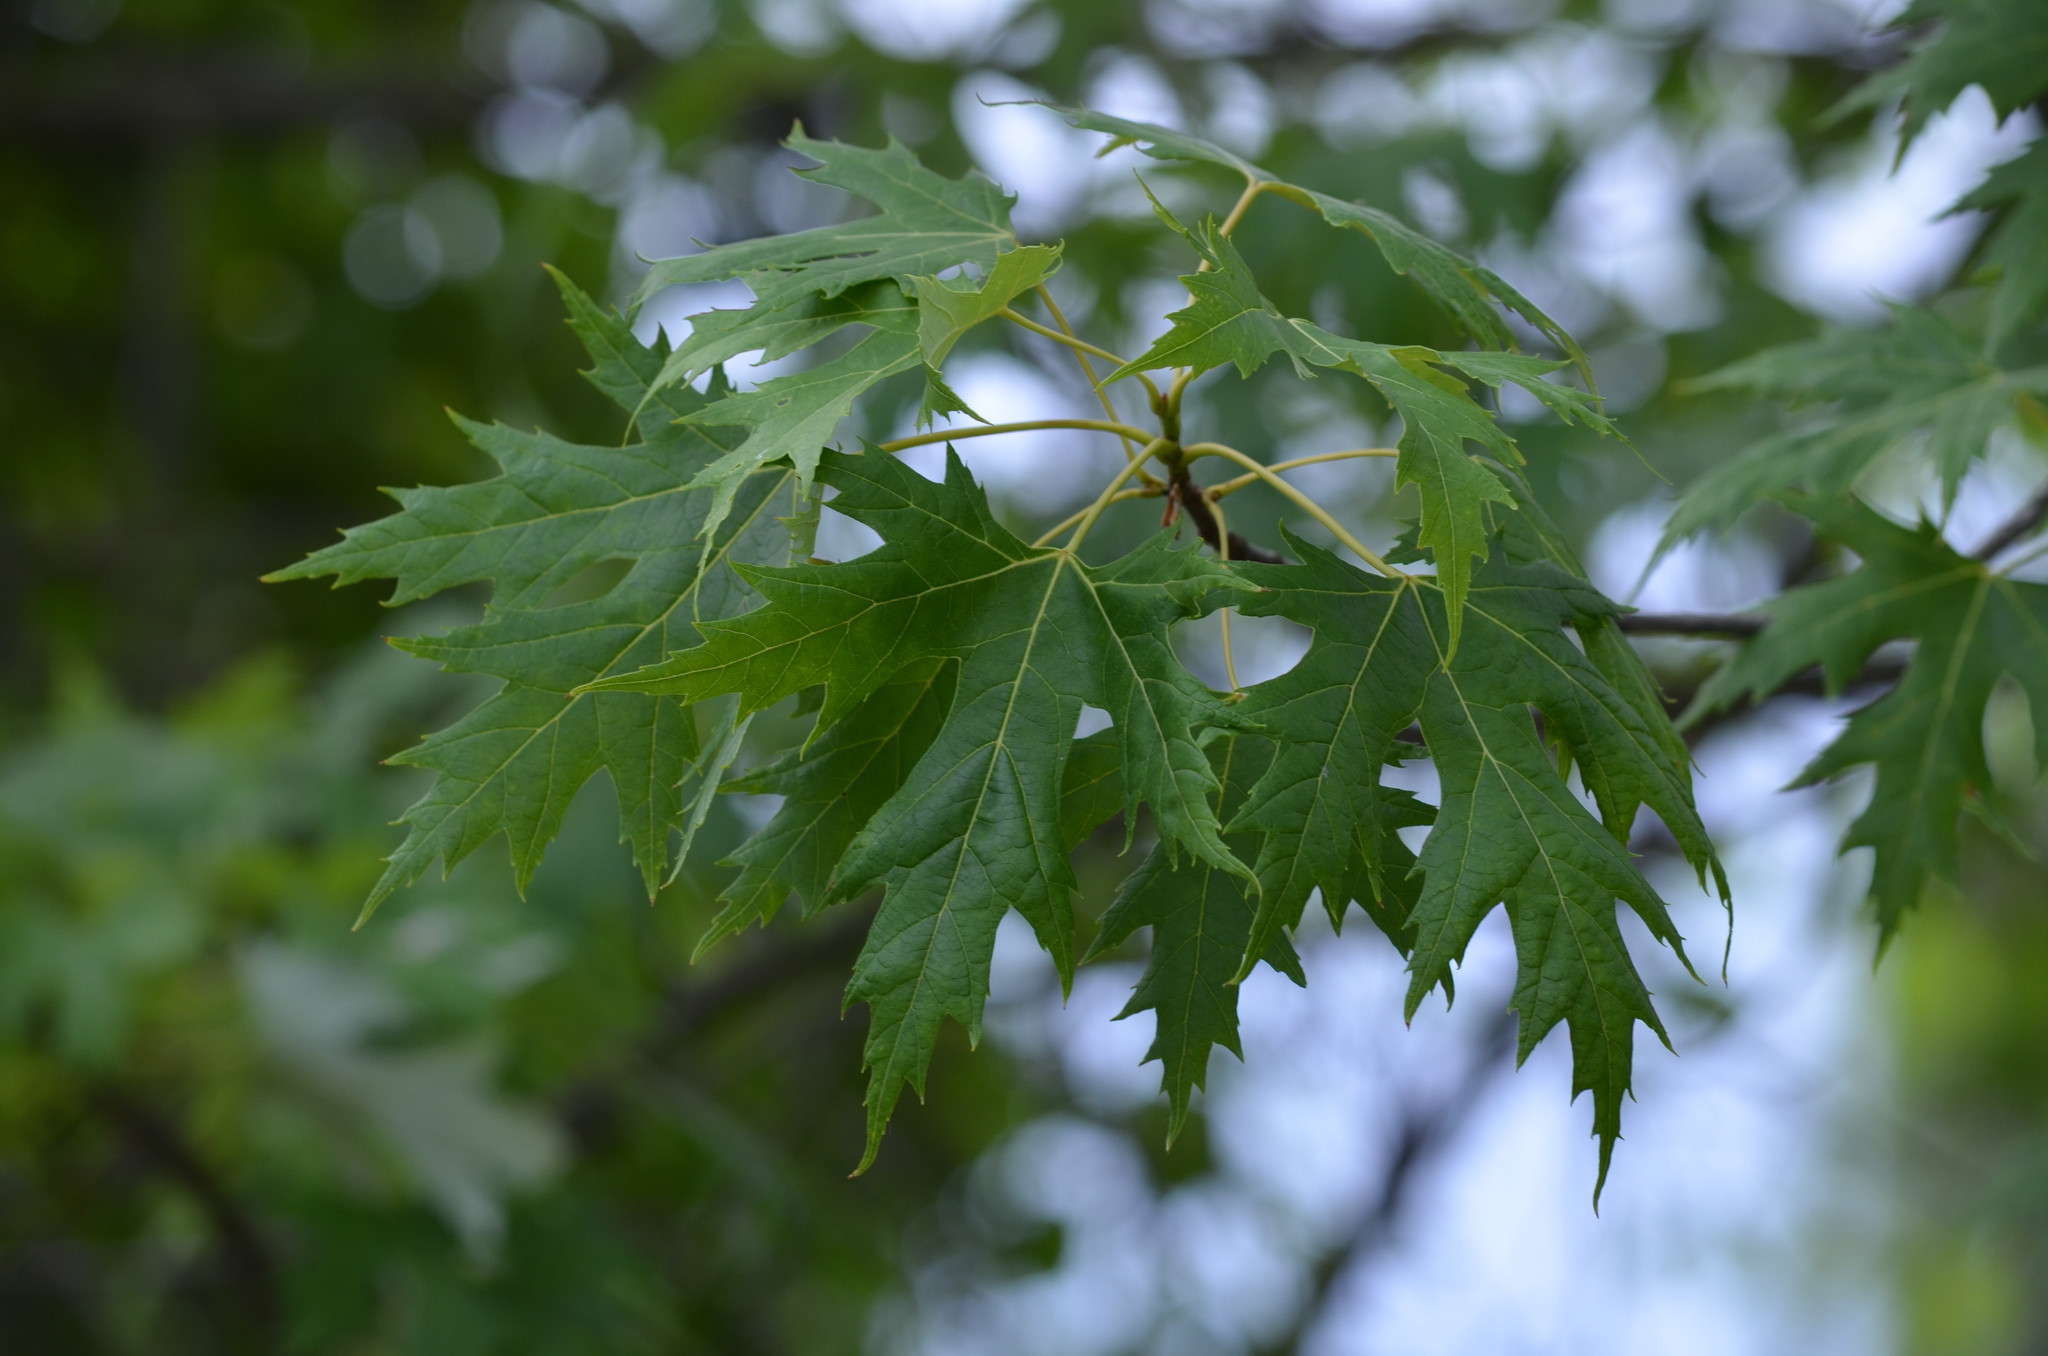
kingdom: Plantae
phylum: Tracheophyta
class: Magnoliopsida
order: Sapindales
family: Sapindaceae
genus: Acer
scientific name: Acer saccharinum
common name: Silver maple
